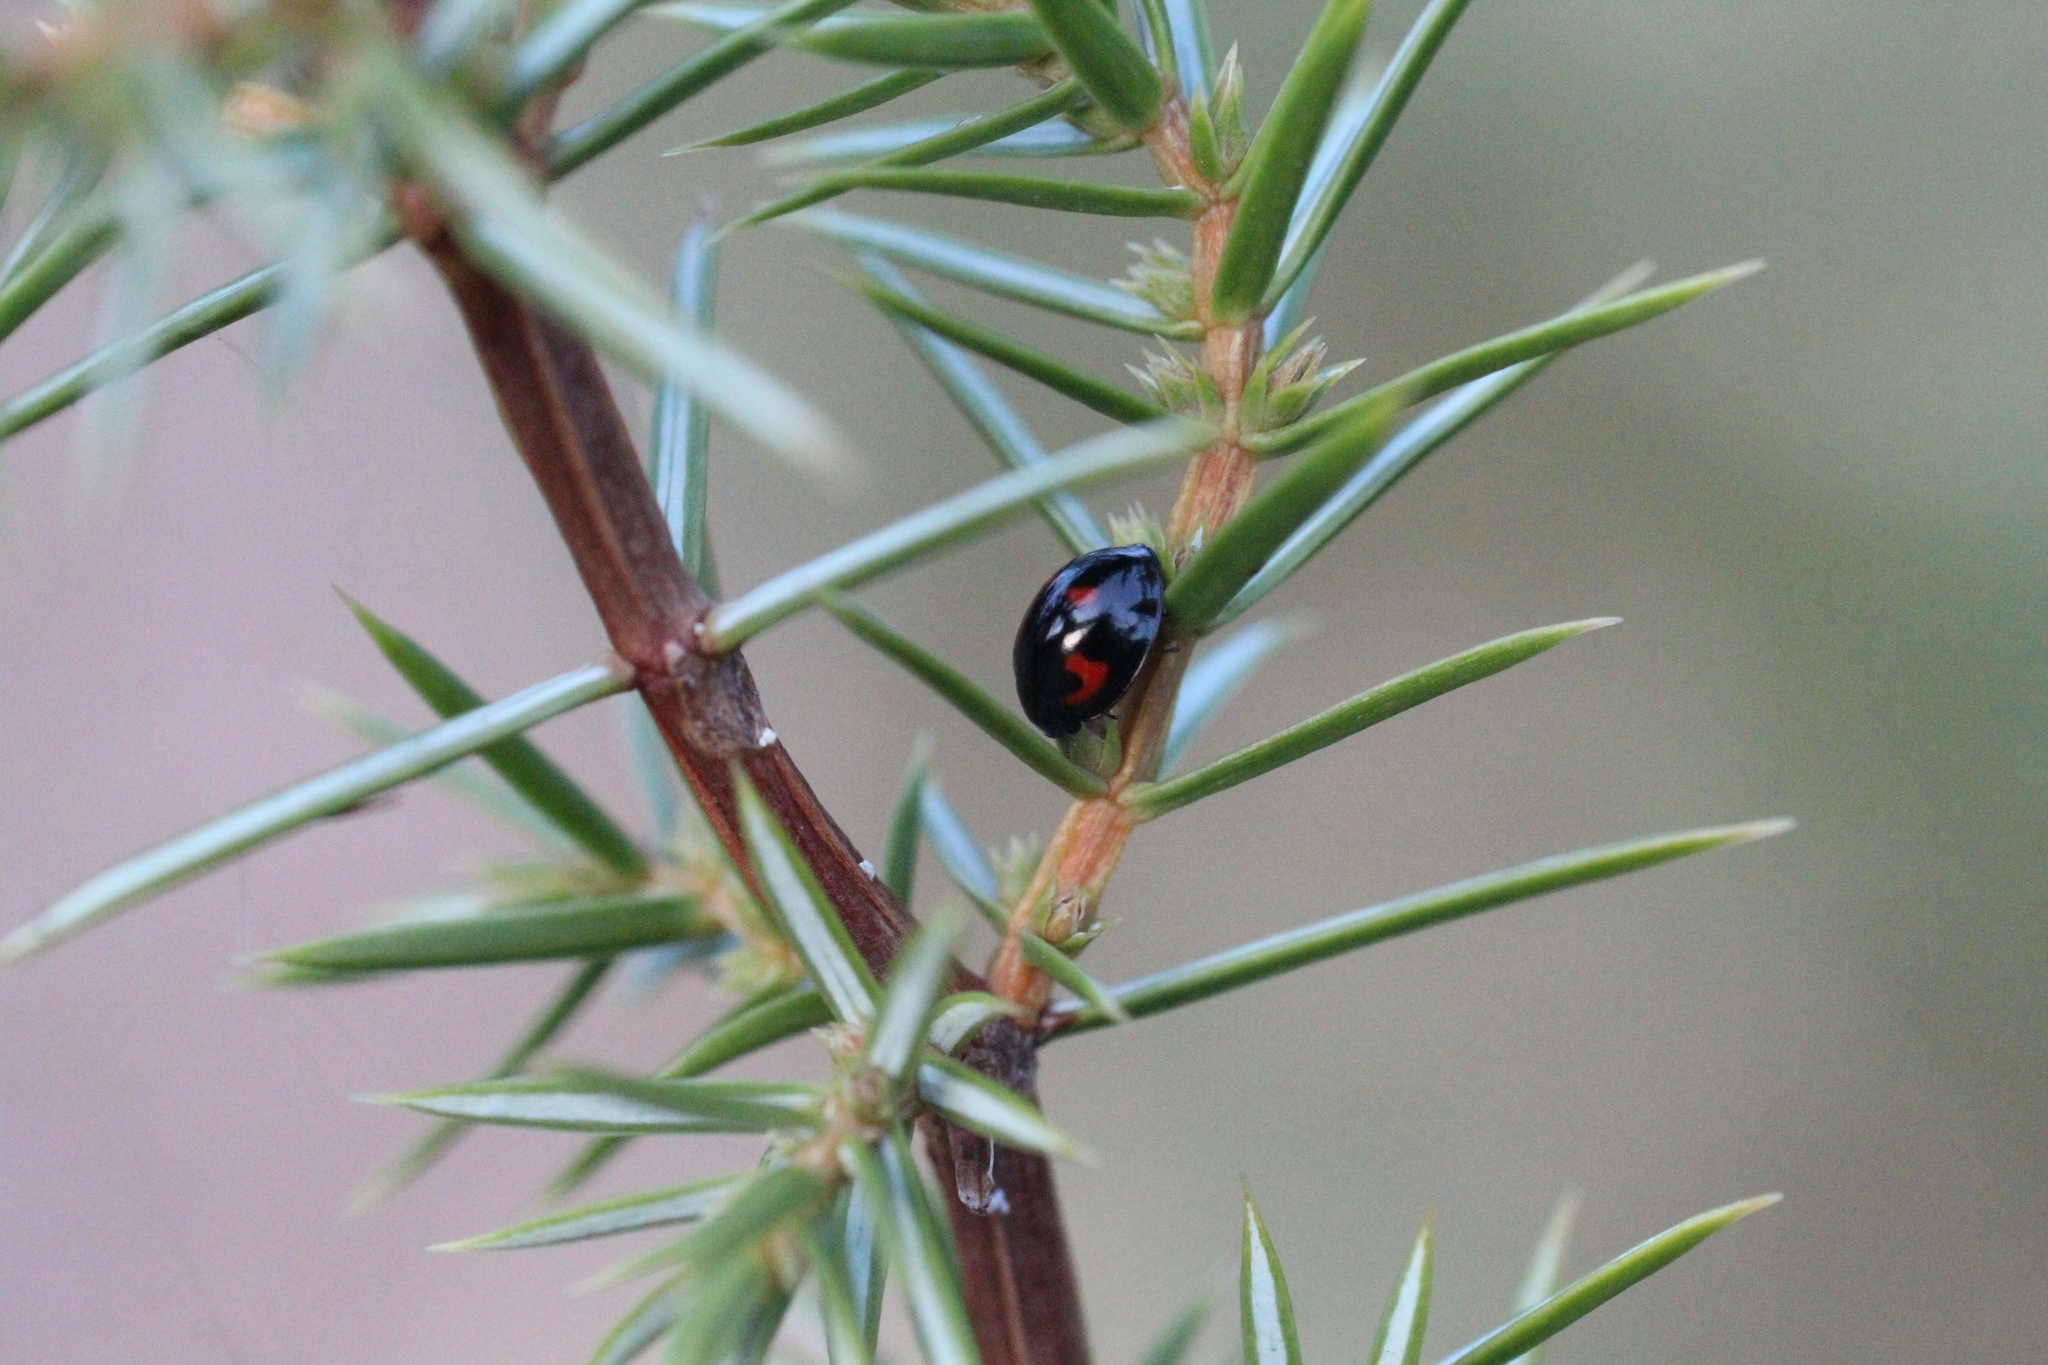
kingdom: Animalia
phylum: Arthropoda
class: Insecta
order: Coleoptera
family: Coccinellidae
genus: Brumus
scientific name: Brumus quadripustulatus
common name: Ladybird beetle
